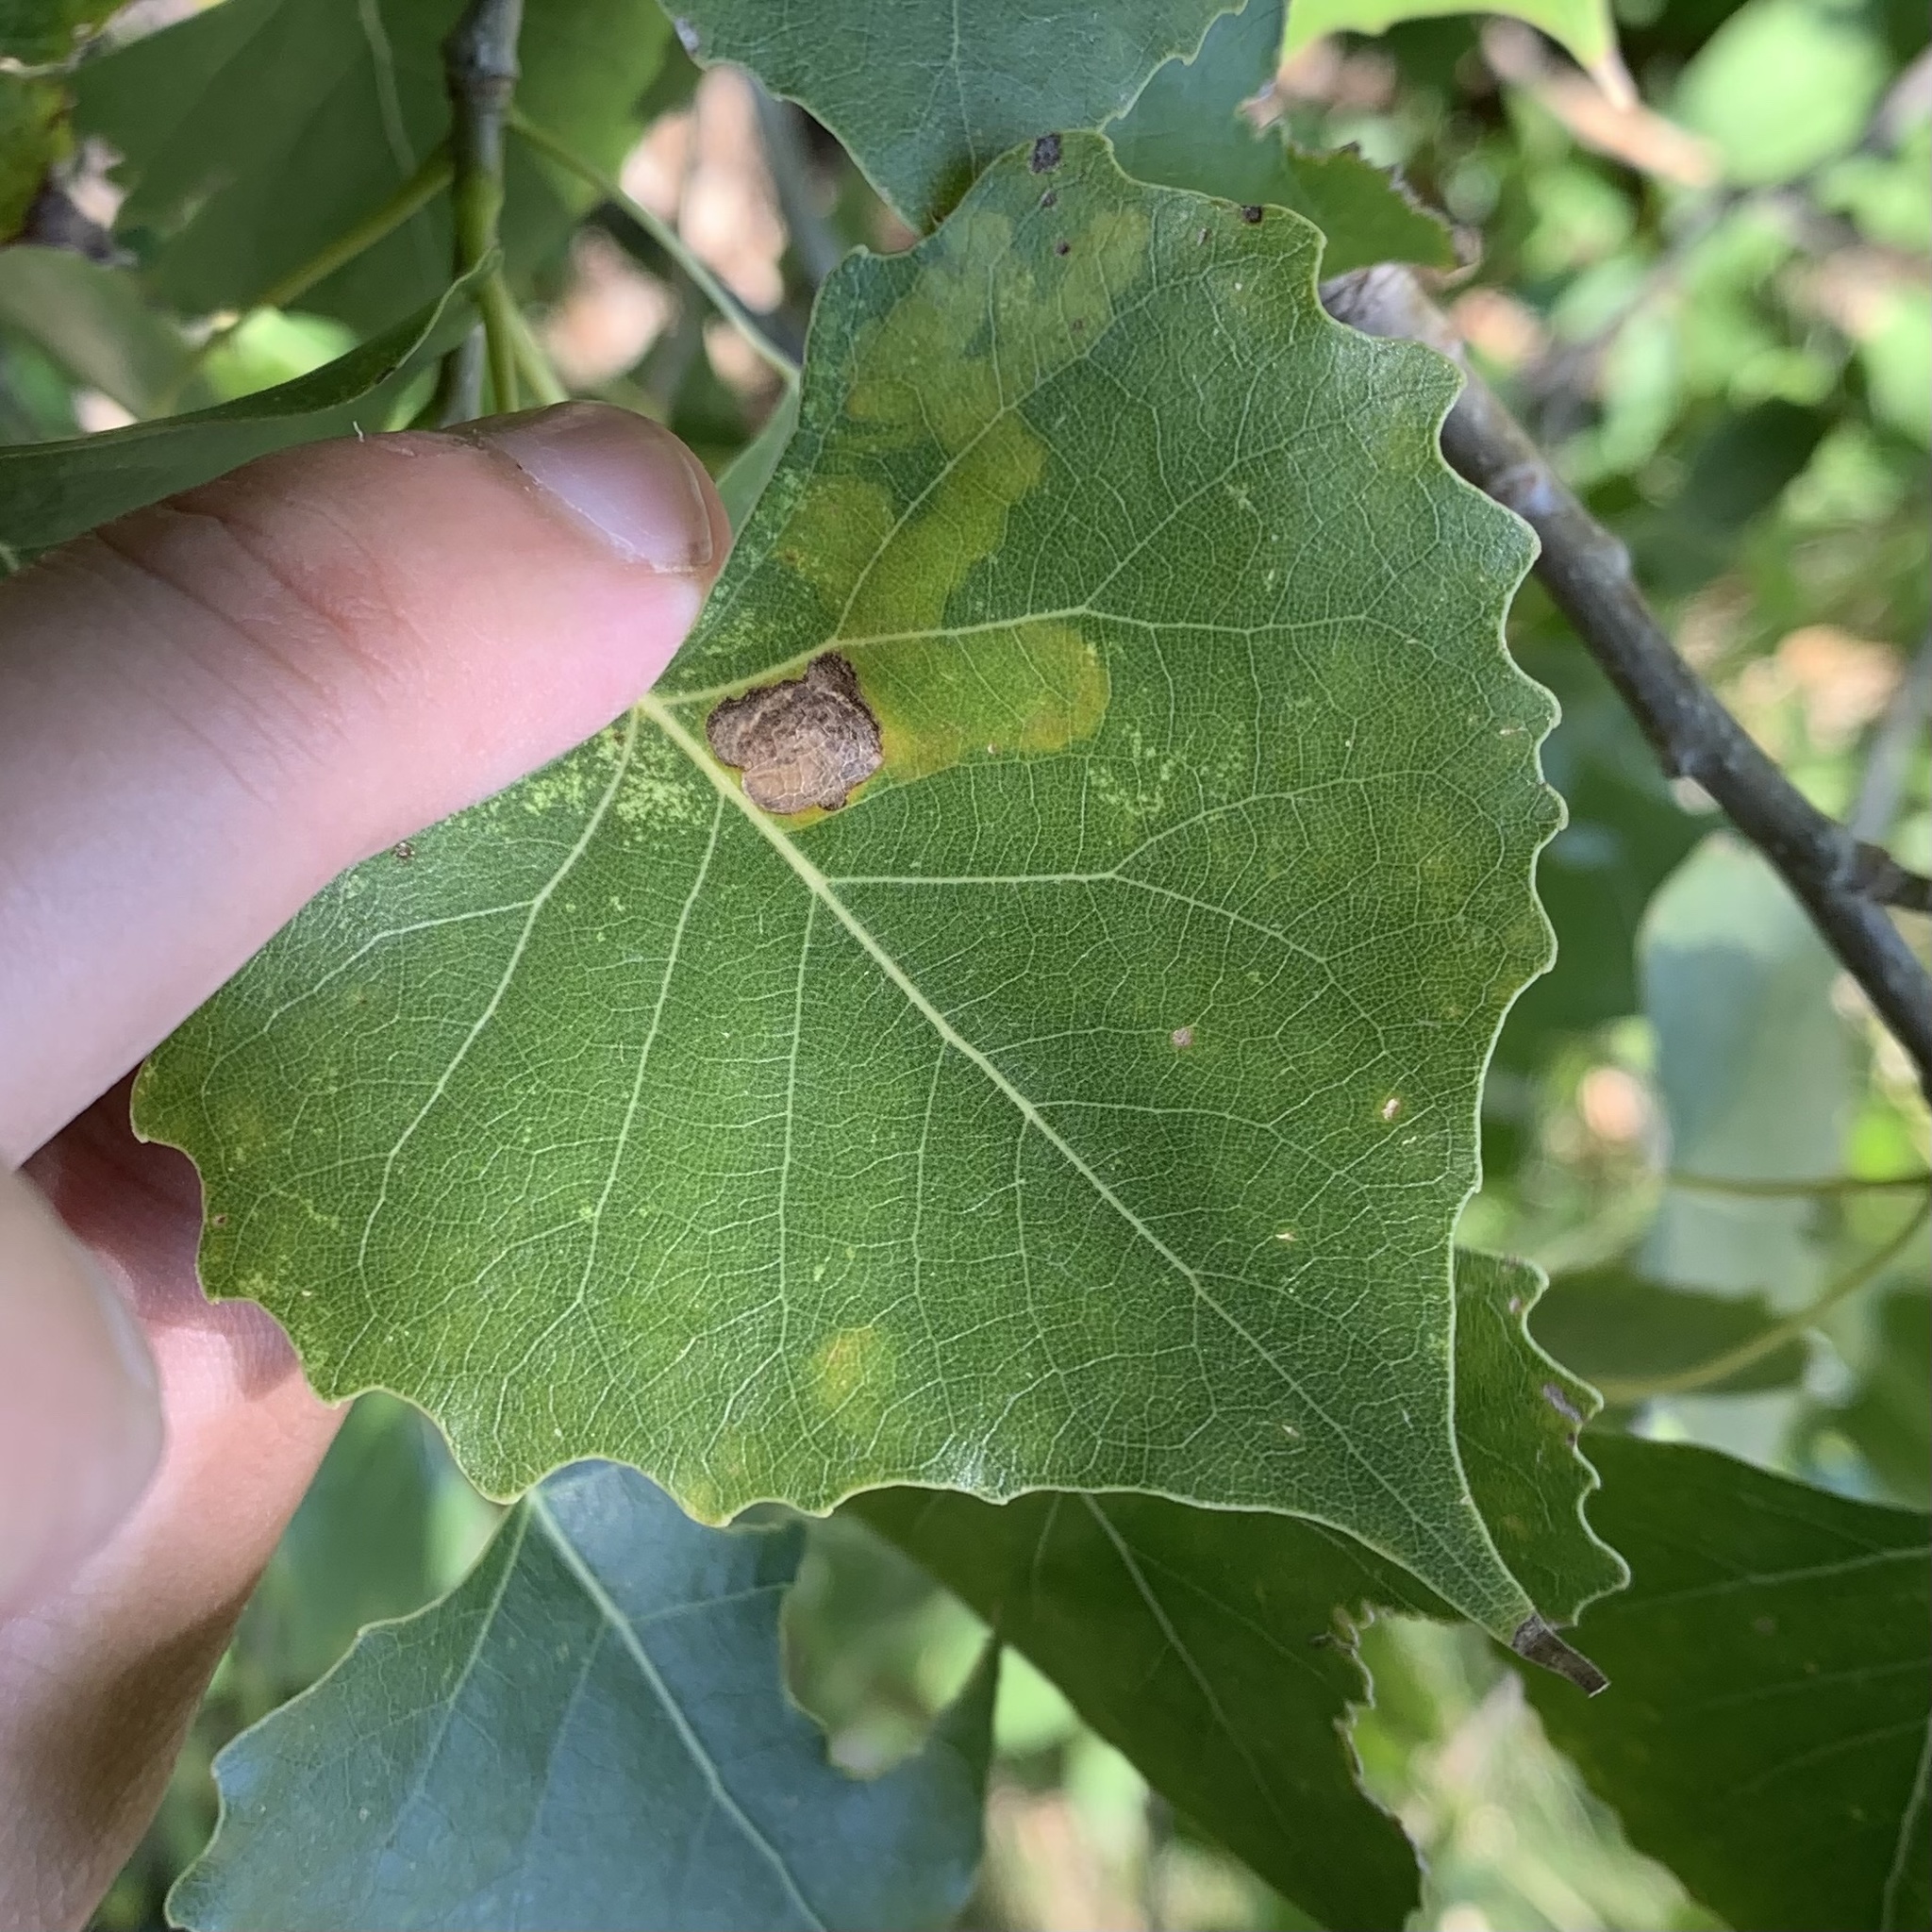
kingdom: Animalia
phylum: Arthropoda
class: Insecta
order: Diptera
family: Agromyzidae
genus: Aulagromyza
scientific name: Aulagromyza populicola
